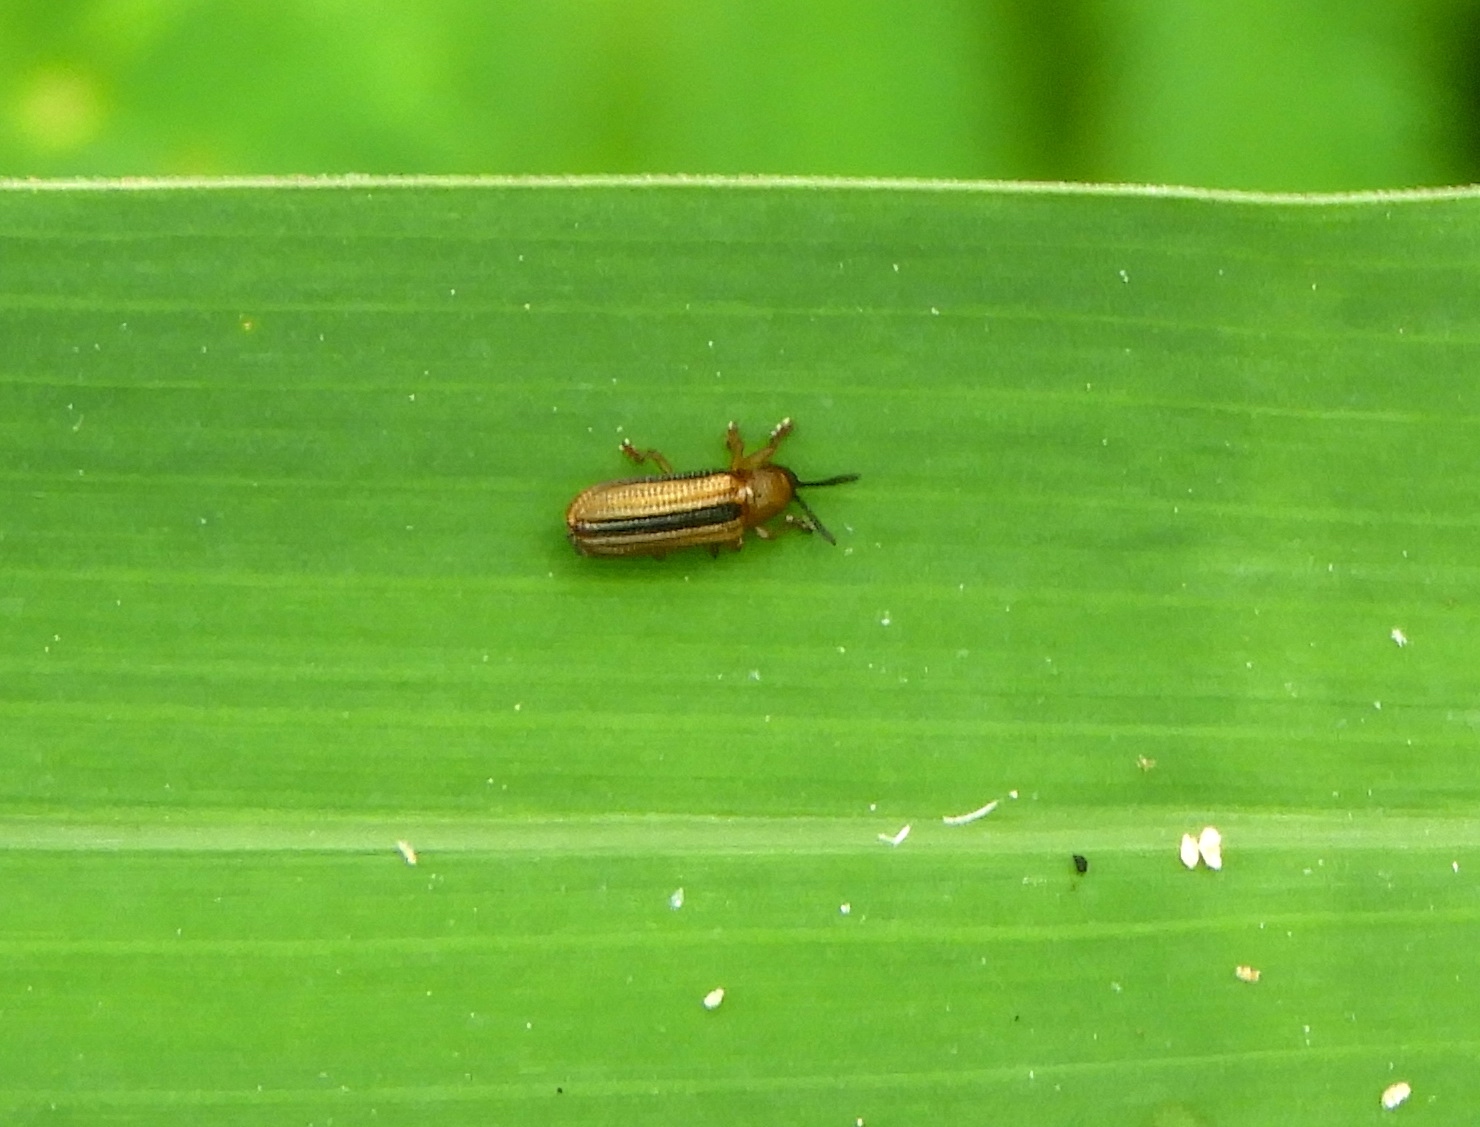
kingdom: Animalia
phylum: Arthropoda
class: Insecta
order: Coleoptera
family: Chrysomelidae
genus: Anisostena
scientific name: Anisostena
